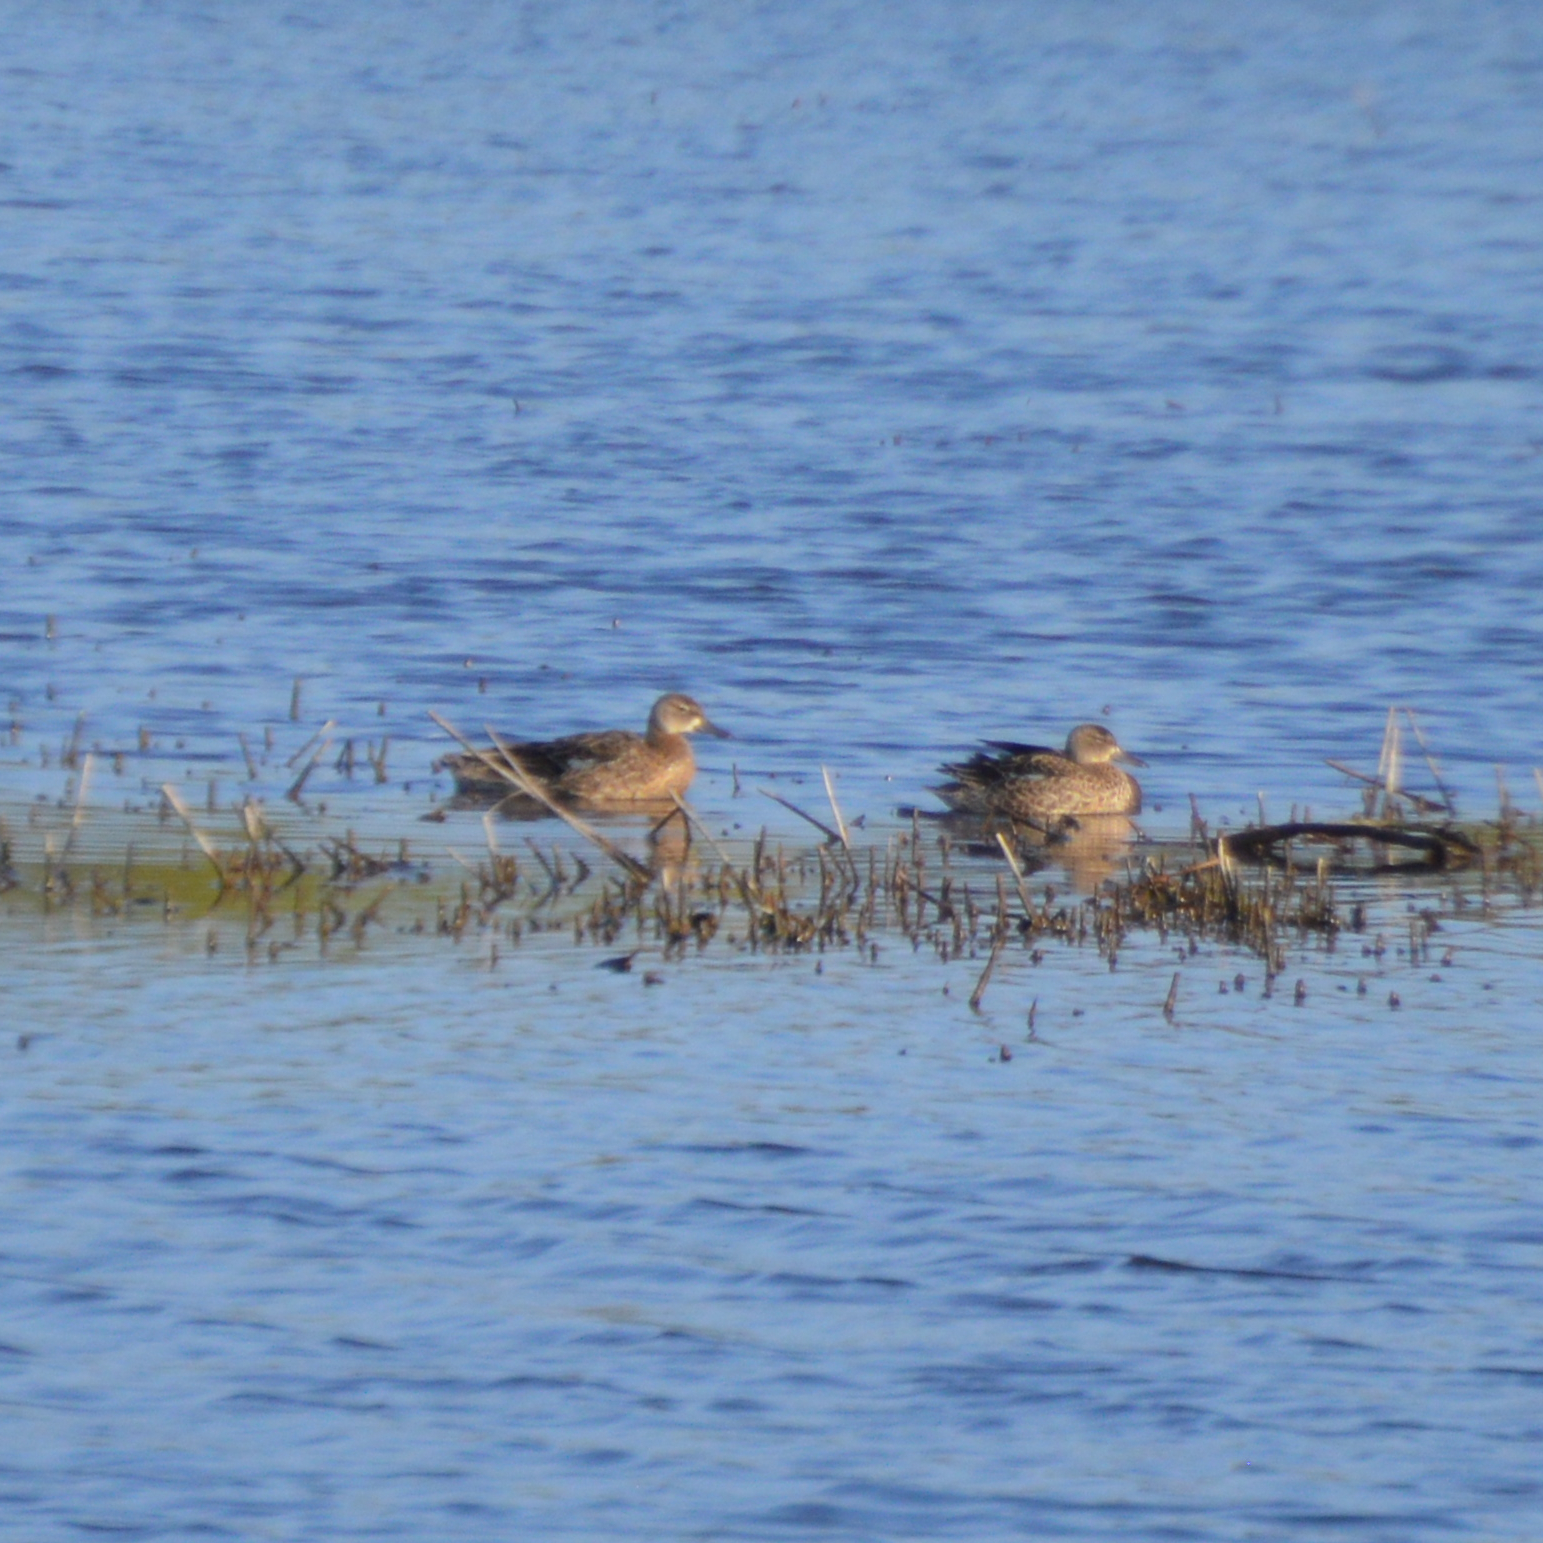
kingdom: Animalia
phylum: Chordata
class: Aves
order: Anseriformes
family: Anatidae
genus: Spatula
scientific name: Spatula discors
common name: Blue-winged teal
